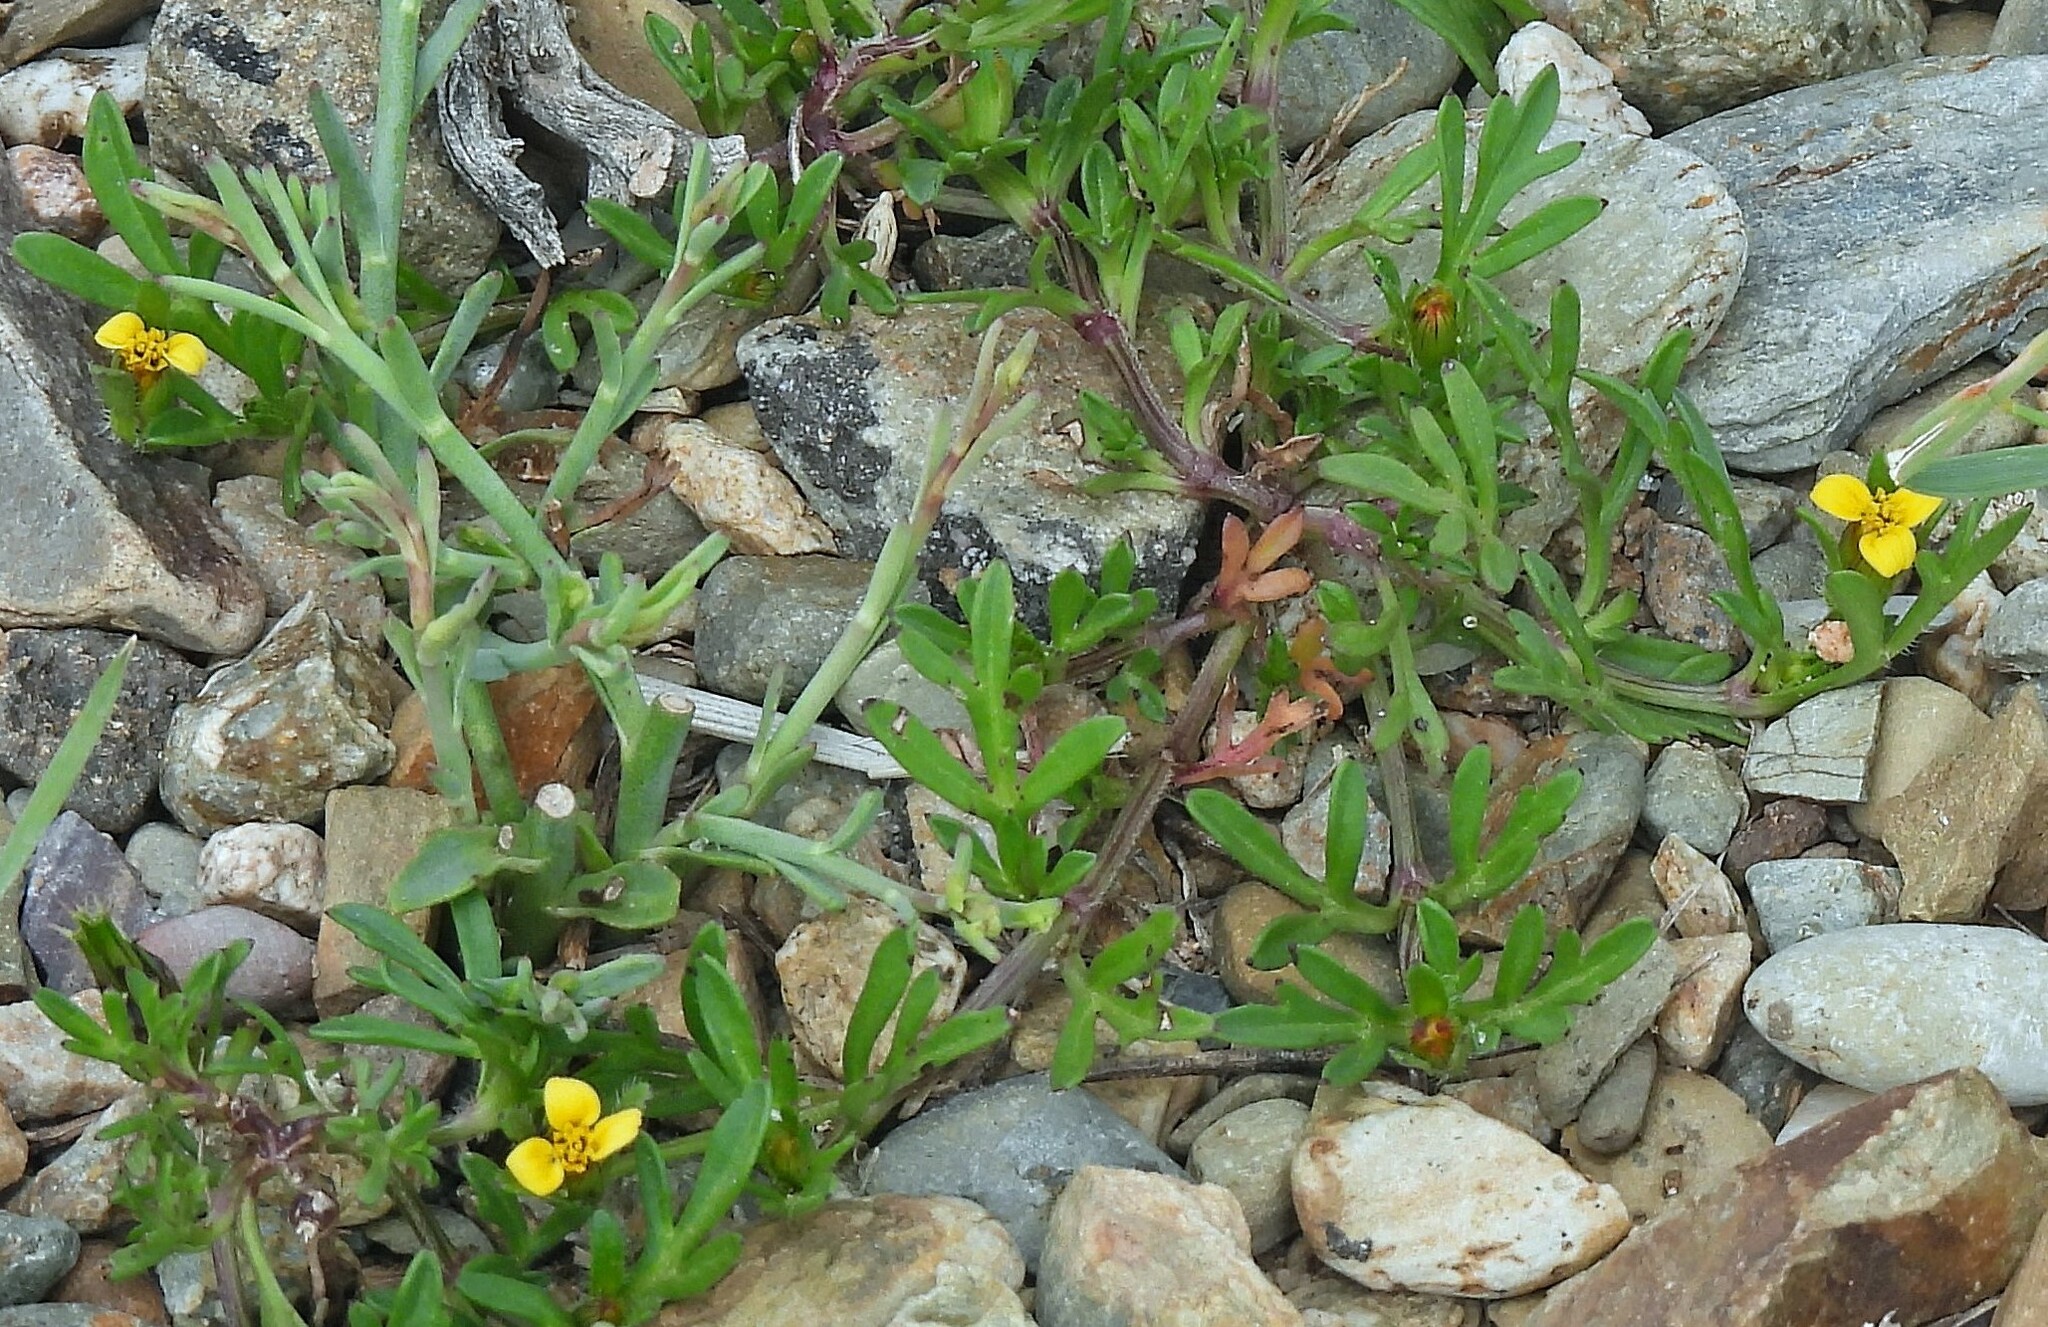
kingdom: Plantae
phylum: Tracheophyta
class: Magnoliopsida
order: Asterales
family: Asteraceae
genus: Heterosperma
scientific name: Heterosperma tenuisectum
